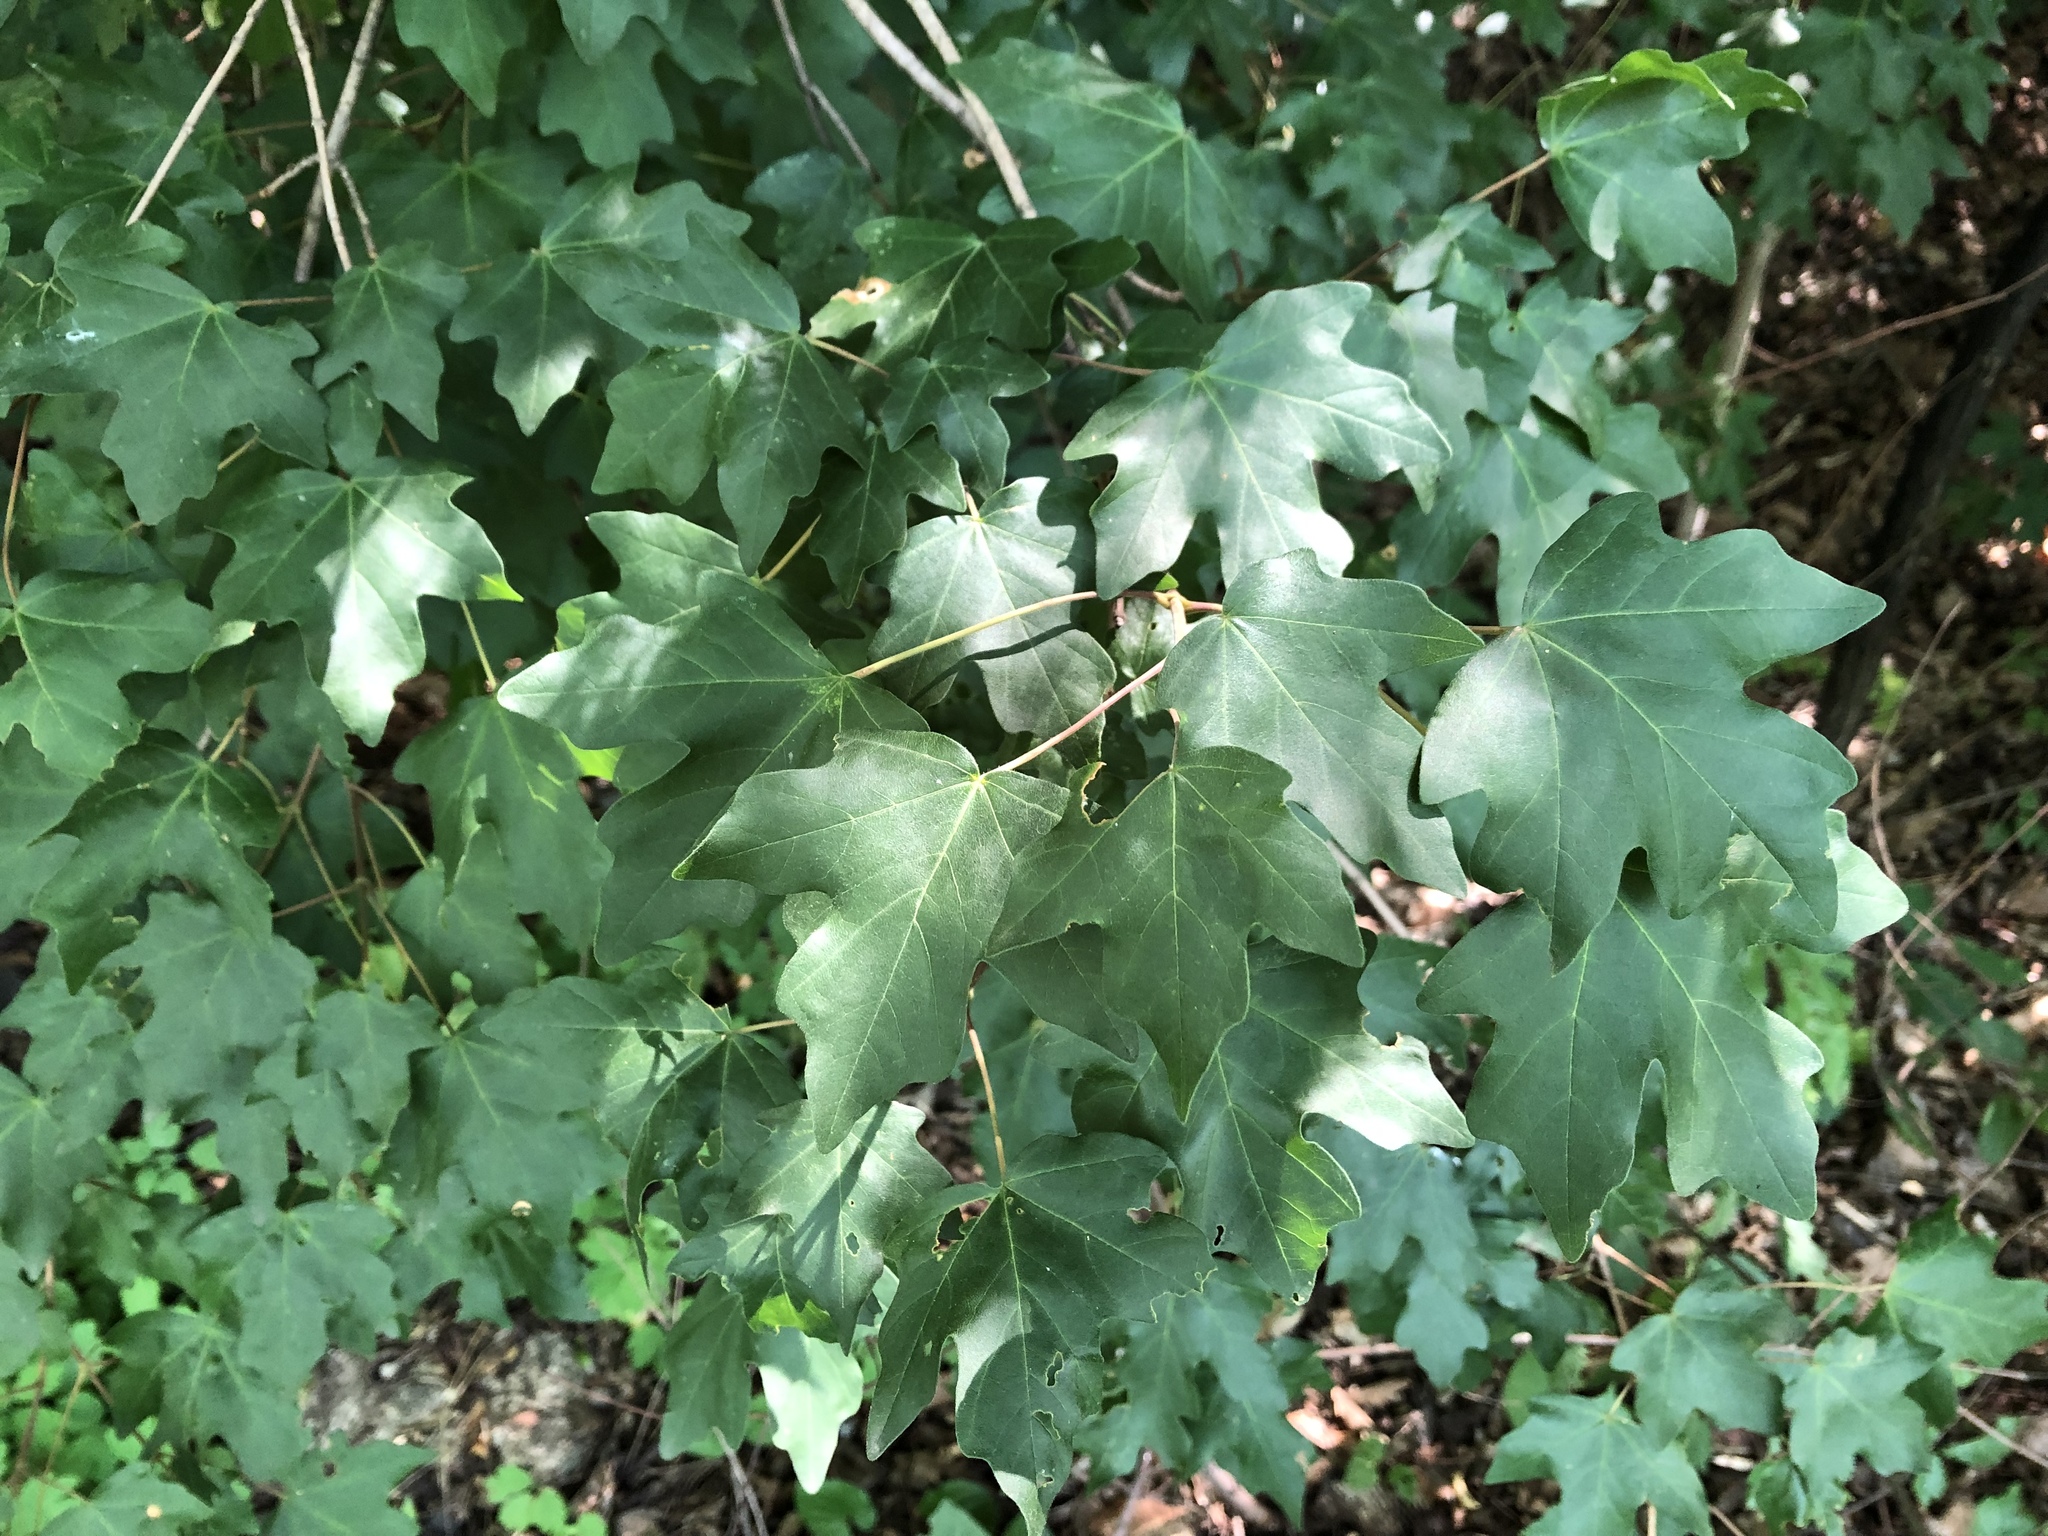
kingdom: Plantae
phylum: Tracheophyta
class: Magnoliopsida
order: Sapindales
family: Sapindaceae
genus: Acer
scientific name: Acer campestre
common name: Field maple
